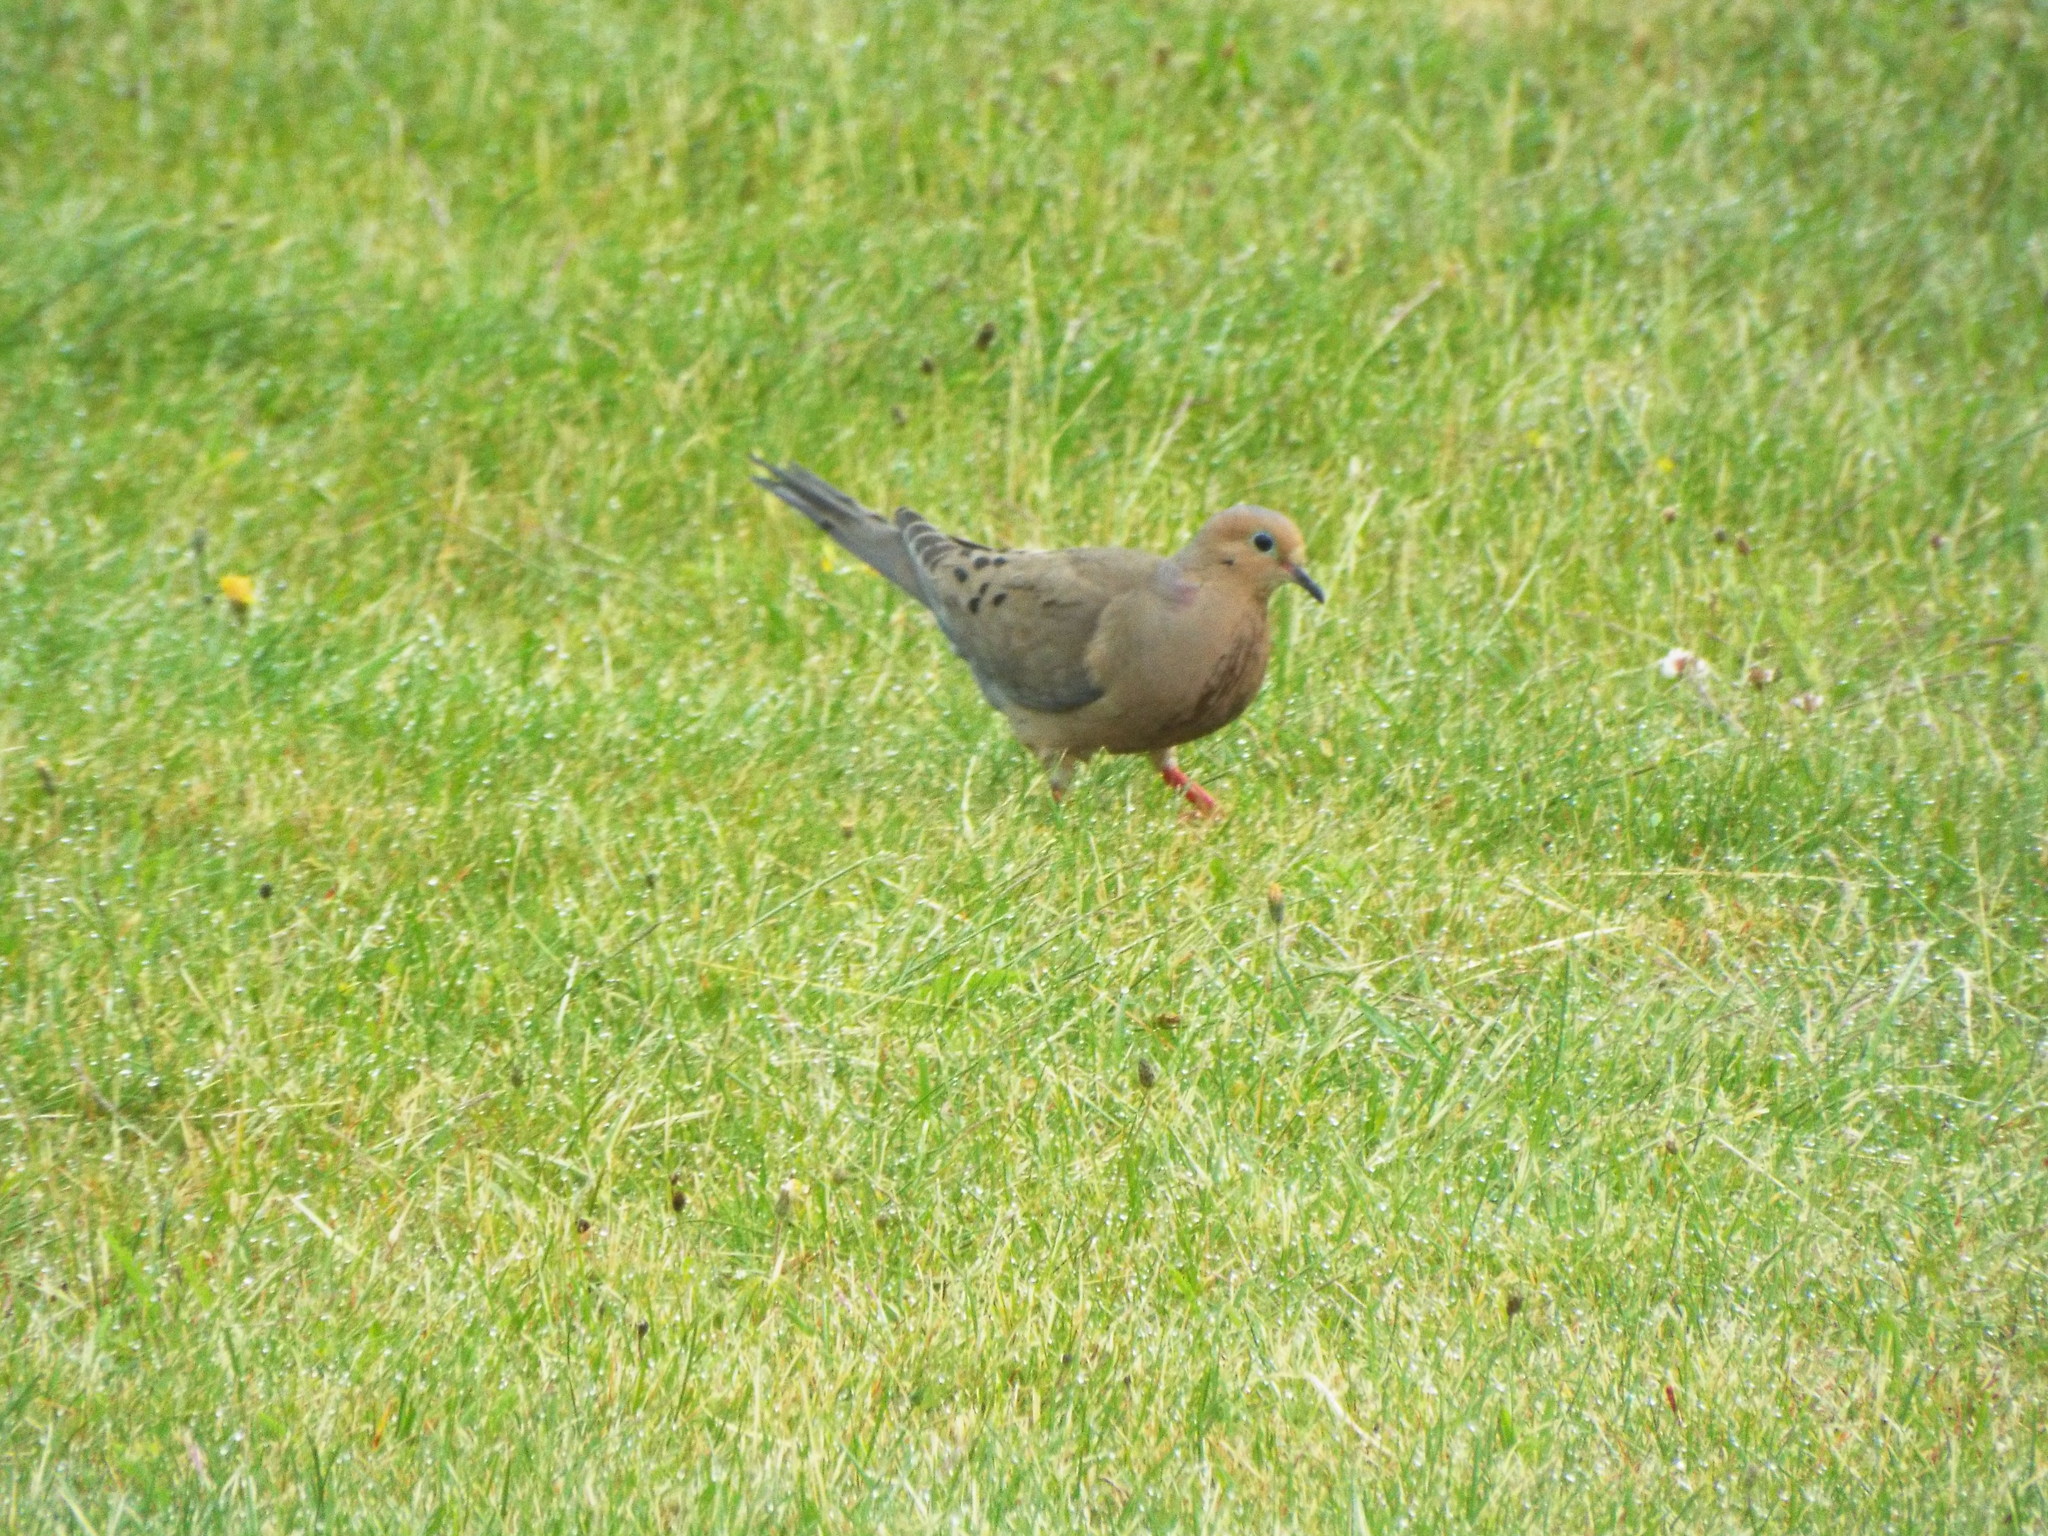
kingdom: Animalia
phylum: Chordata
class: Aves
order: Columbiformes
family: Columbidae
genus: Zenaida
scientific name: Zenaida macroura
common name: Mourning dove
